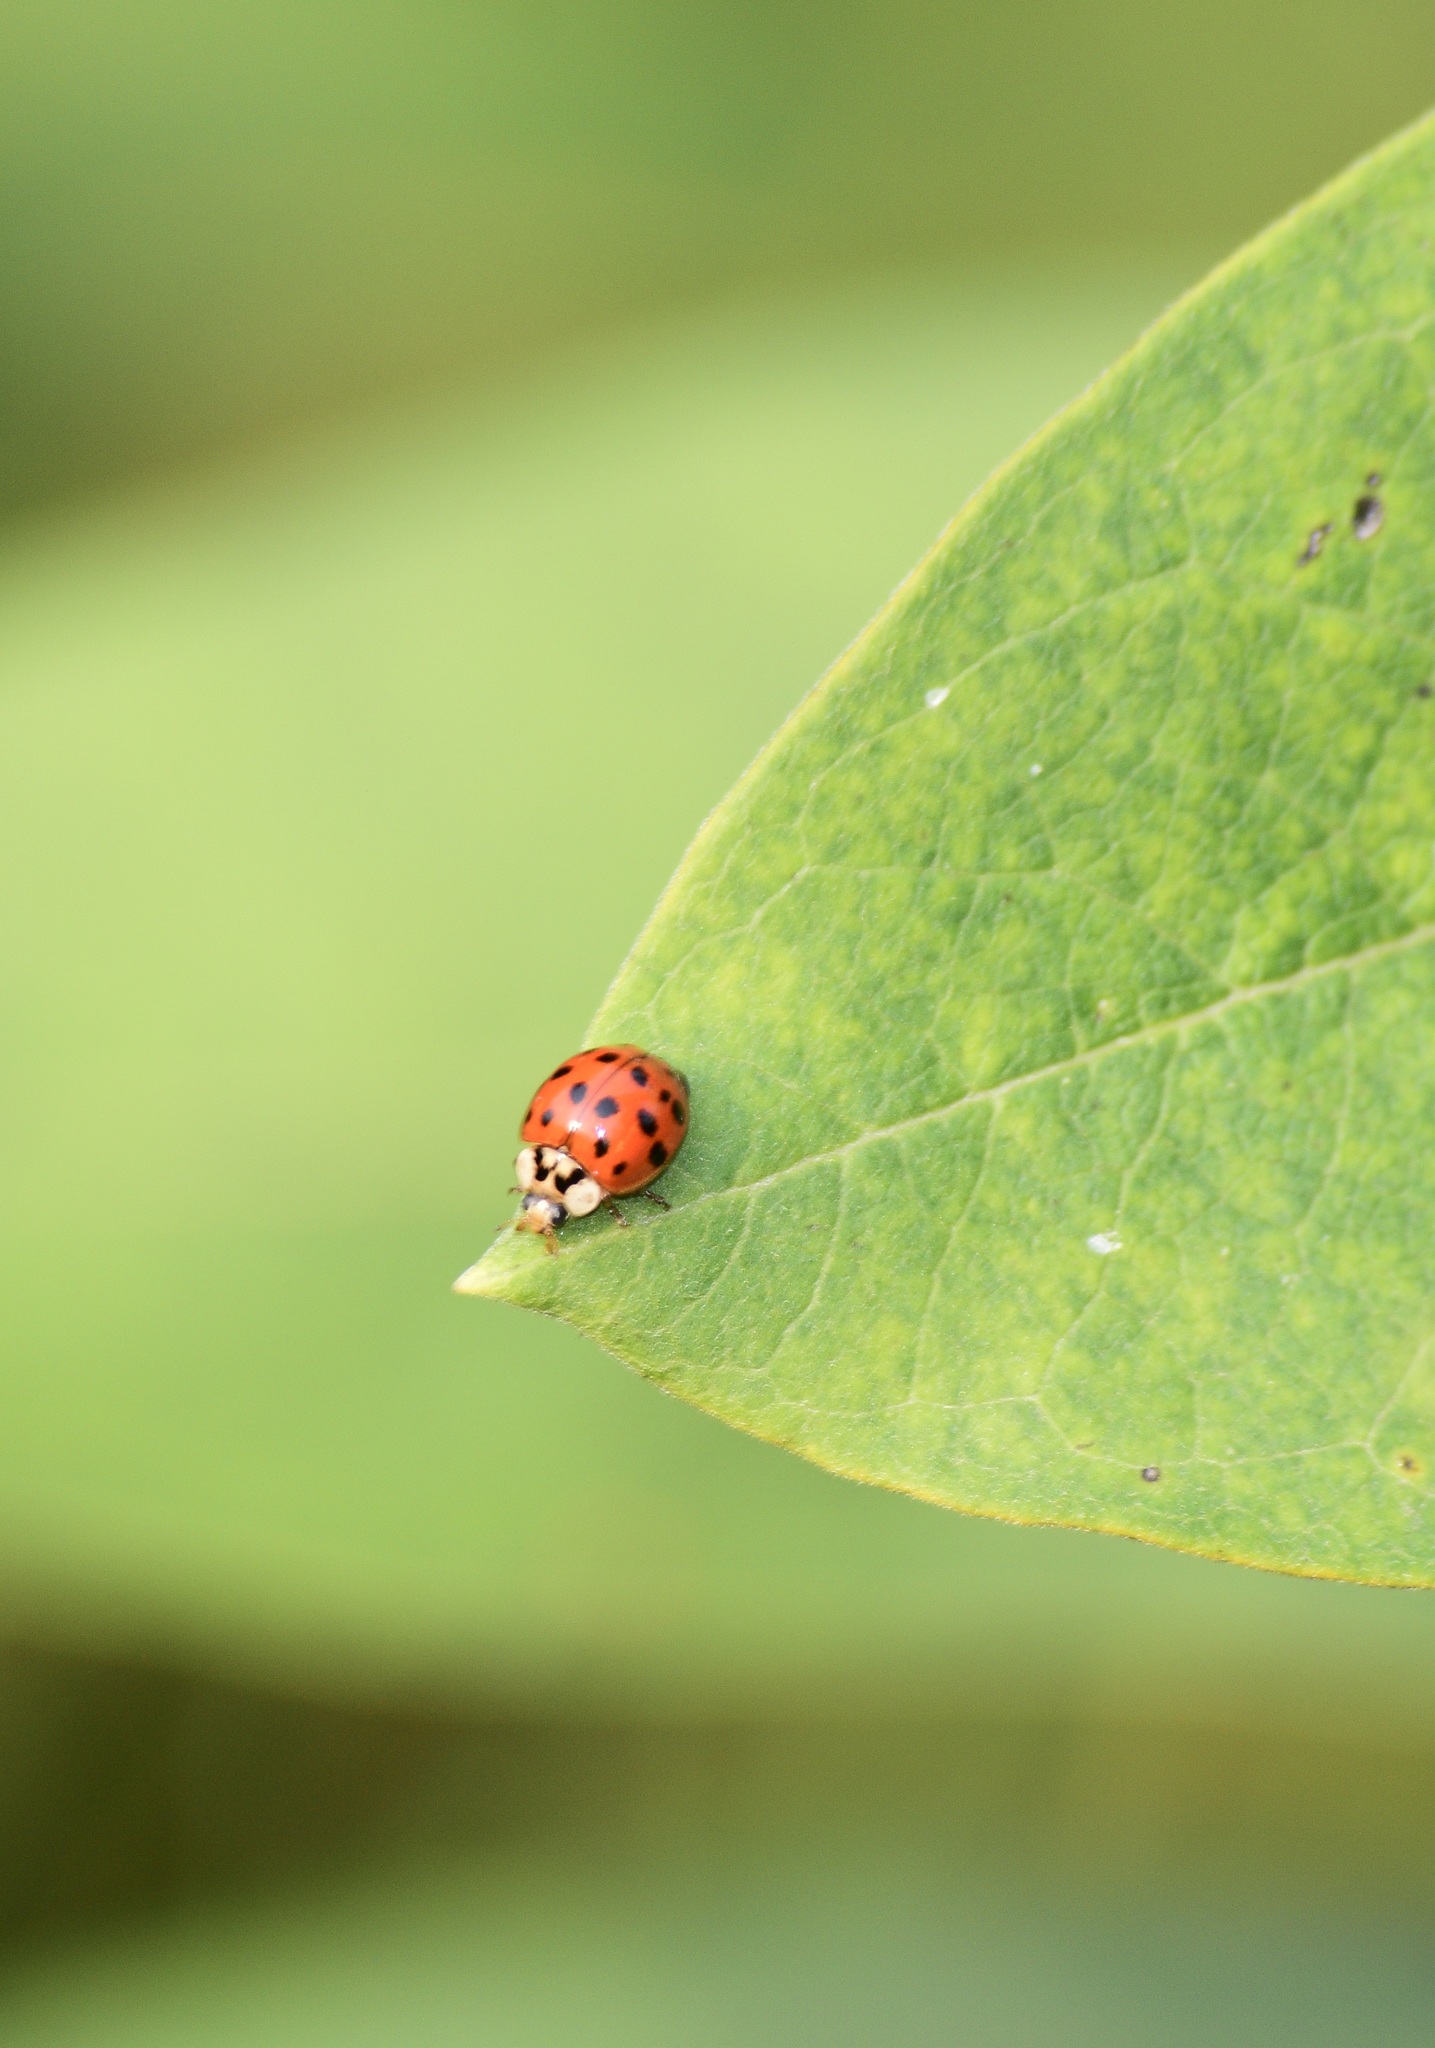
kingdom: Animalia
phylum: Arthropoda
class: Insecta
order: Coleoptera
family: Coccinellidae
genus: Harmonia
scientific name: Harmonia axyridis
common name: Harlequin ladybird
